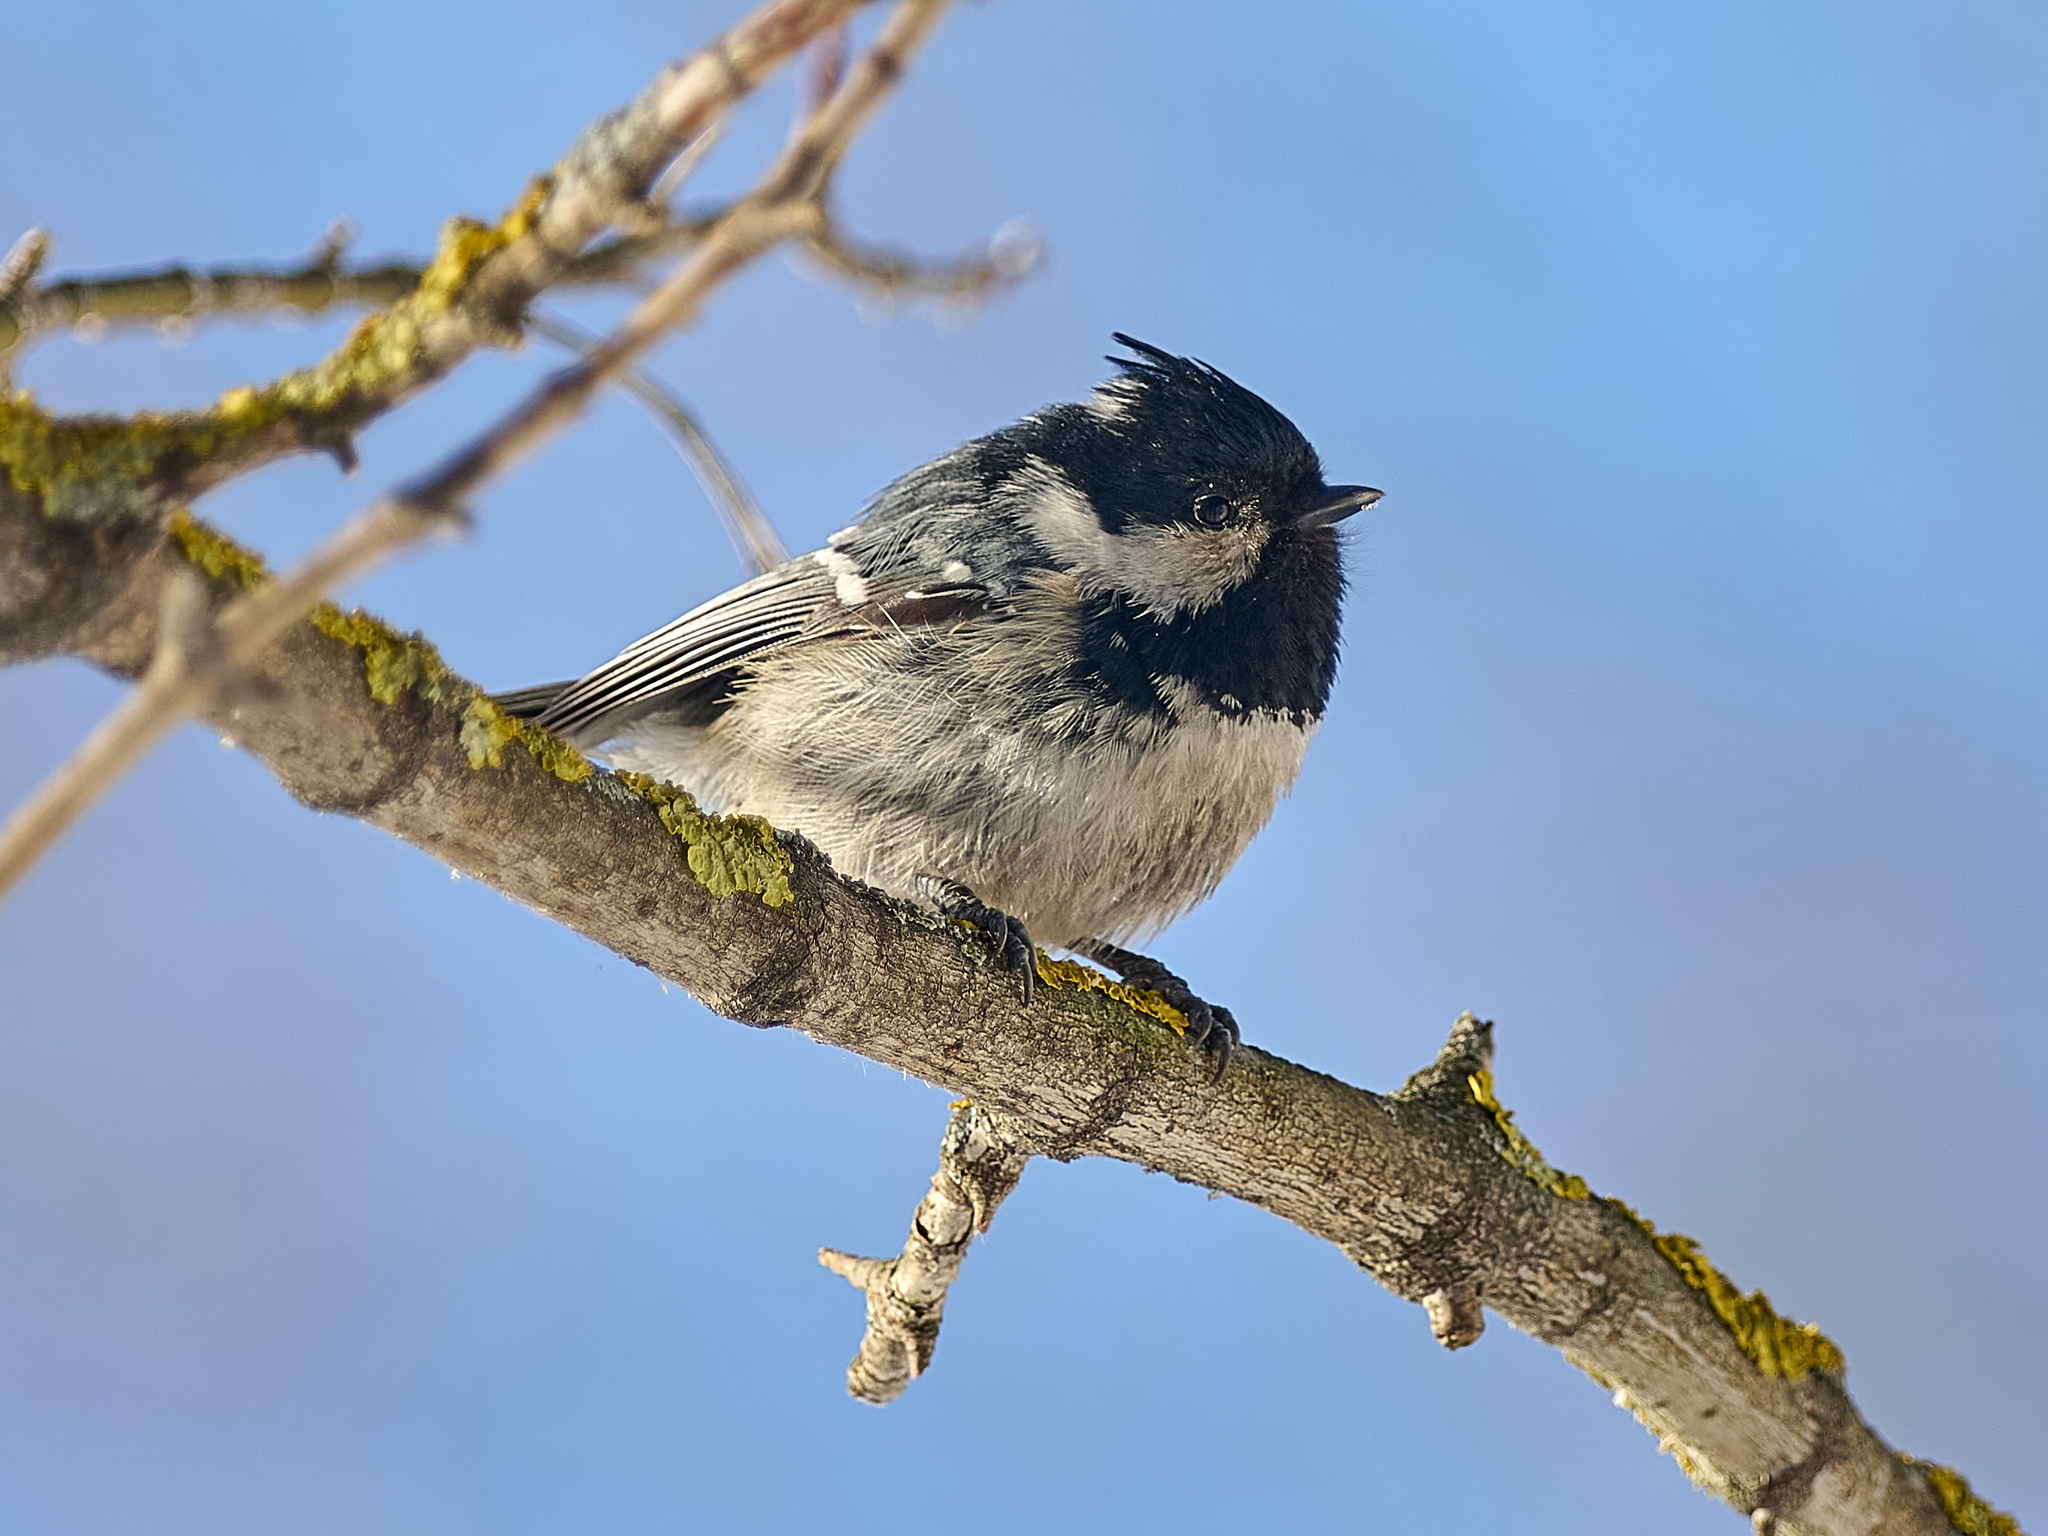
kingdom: Animalia
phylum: Chordata
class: Aves
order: Passeriformes
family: Paridae
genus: Periparus
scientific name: Periparus ater
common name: Coal tit
